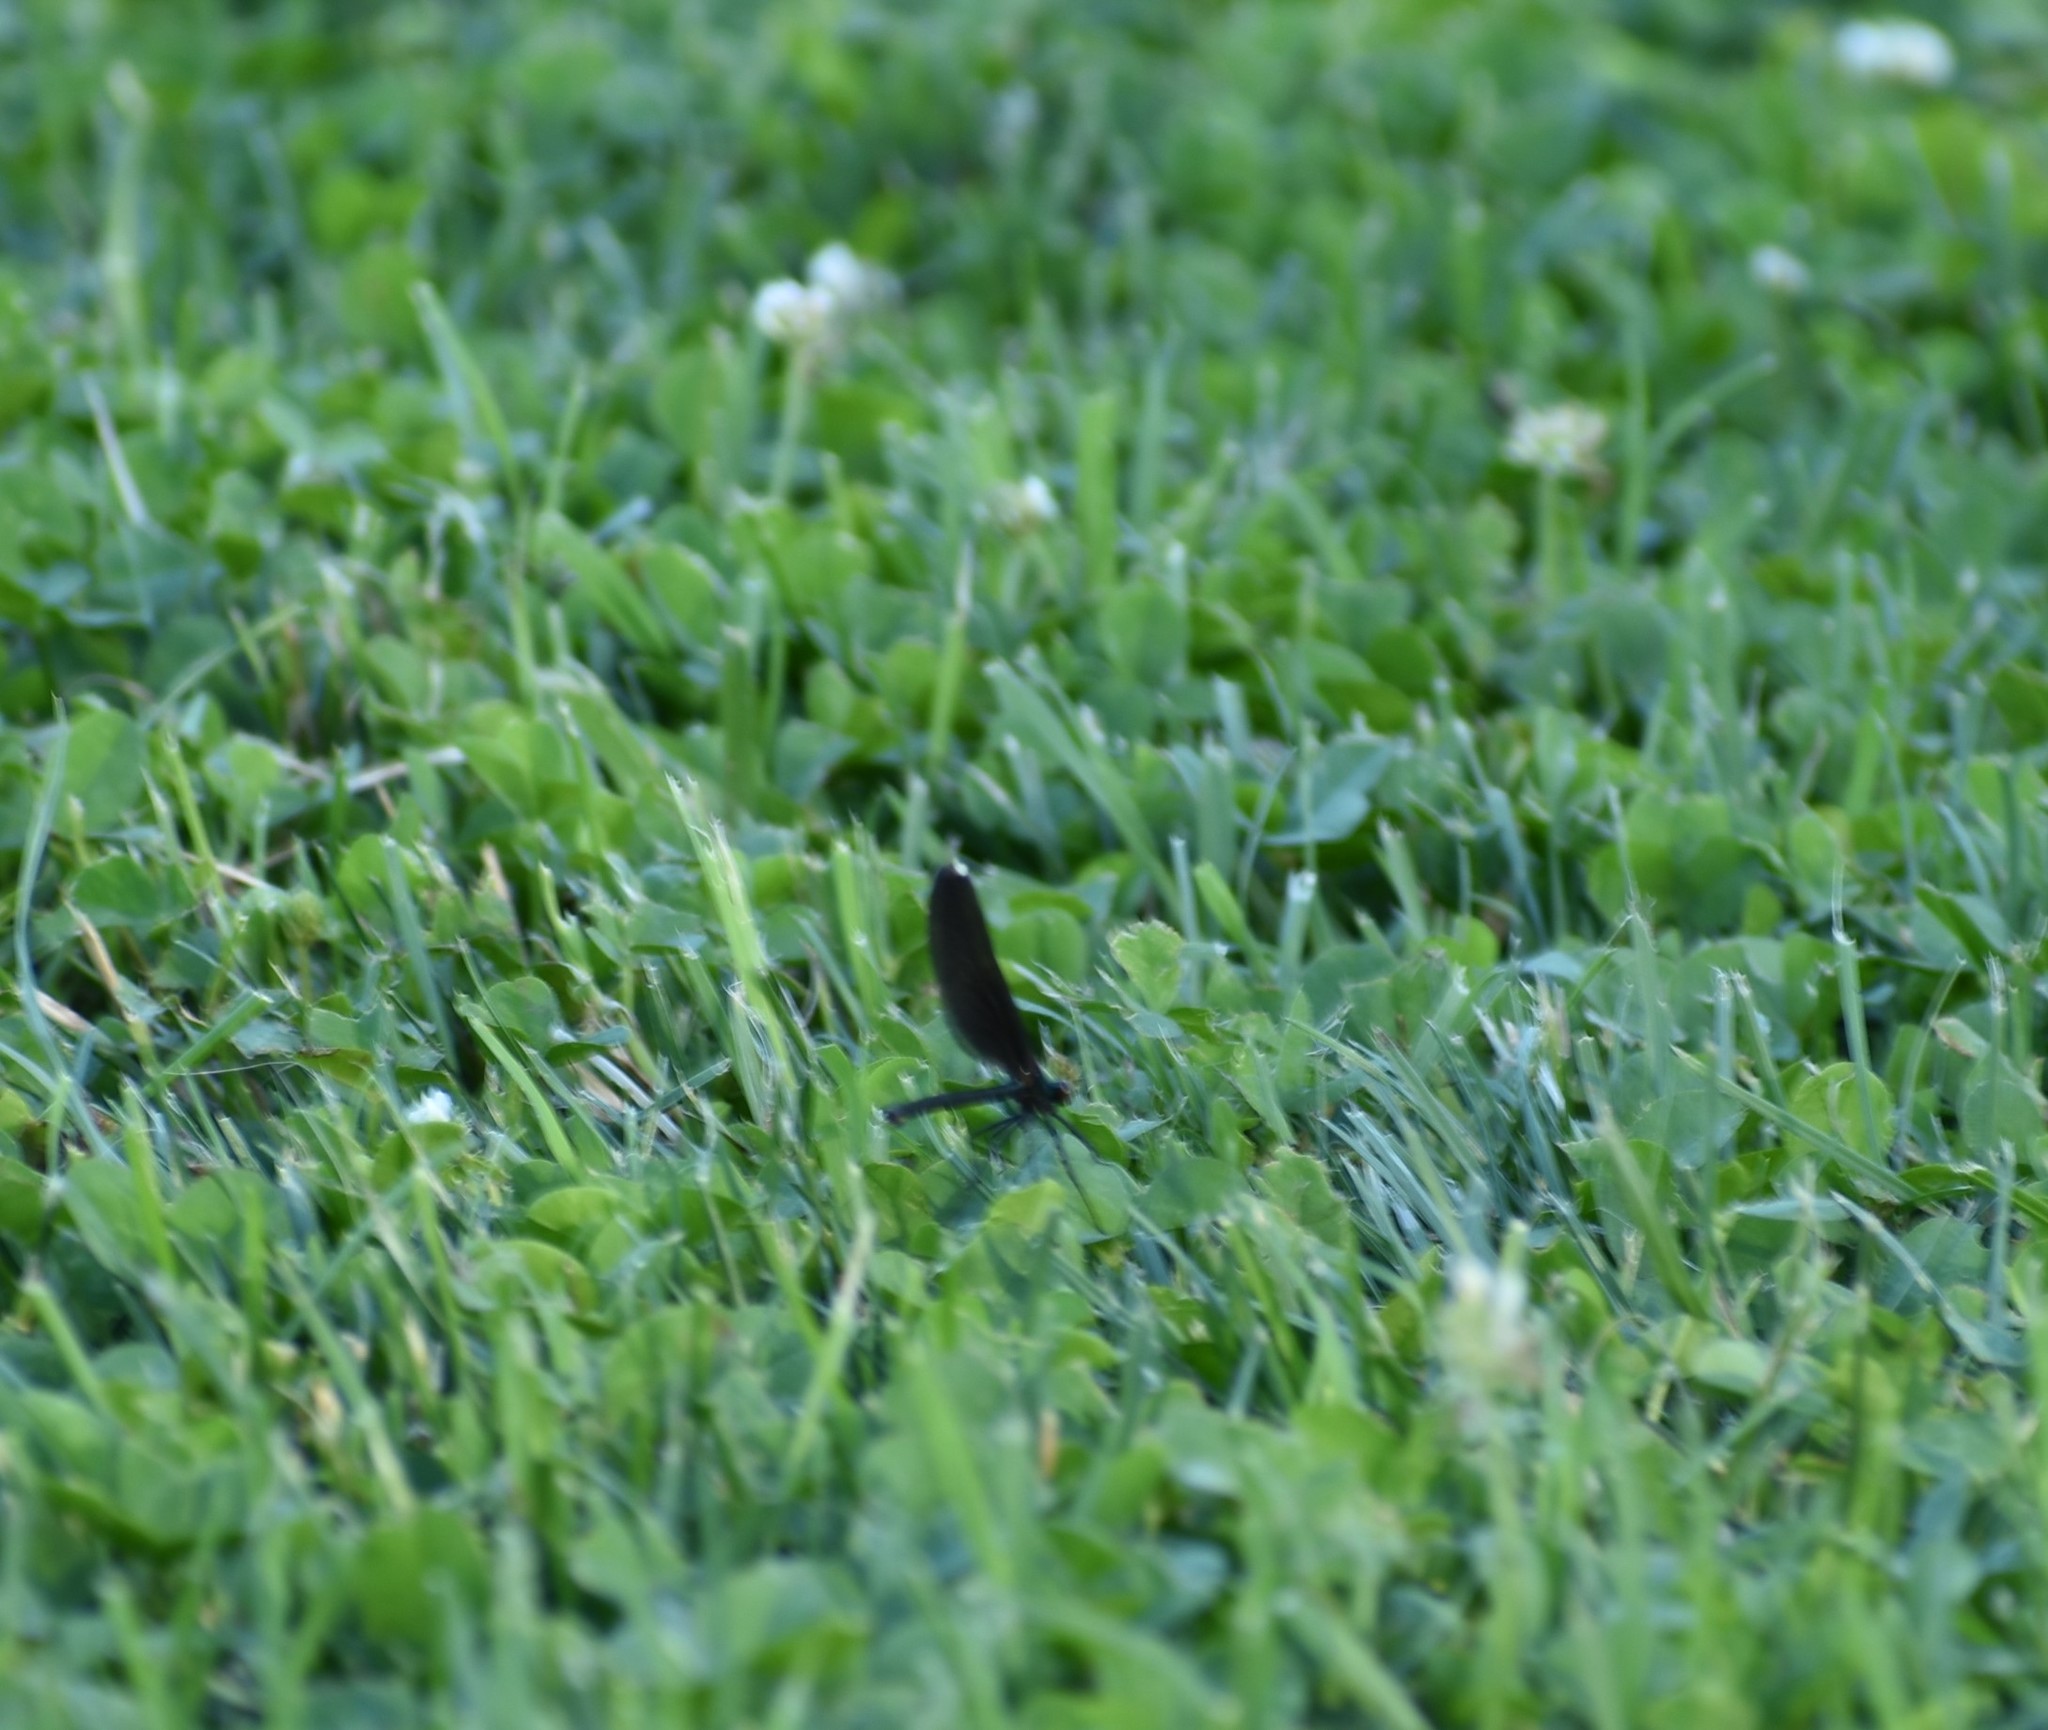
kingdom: Animalia
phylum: Arthropoda
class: Insecta
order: Odonata
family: Calopterygidae
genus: Calopteryx
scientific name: Calopteryx maculata
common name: Ebony jewelwing
